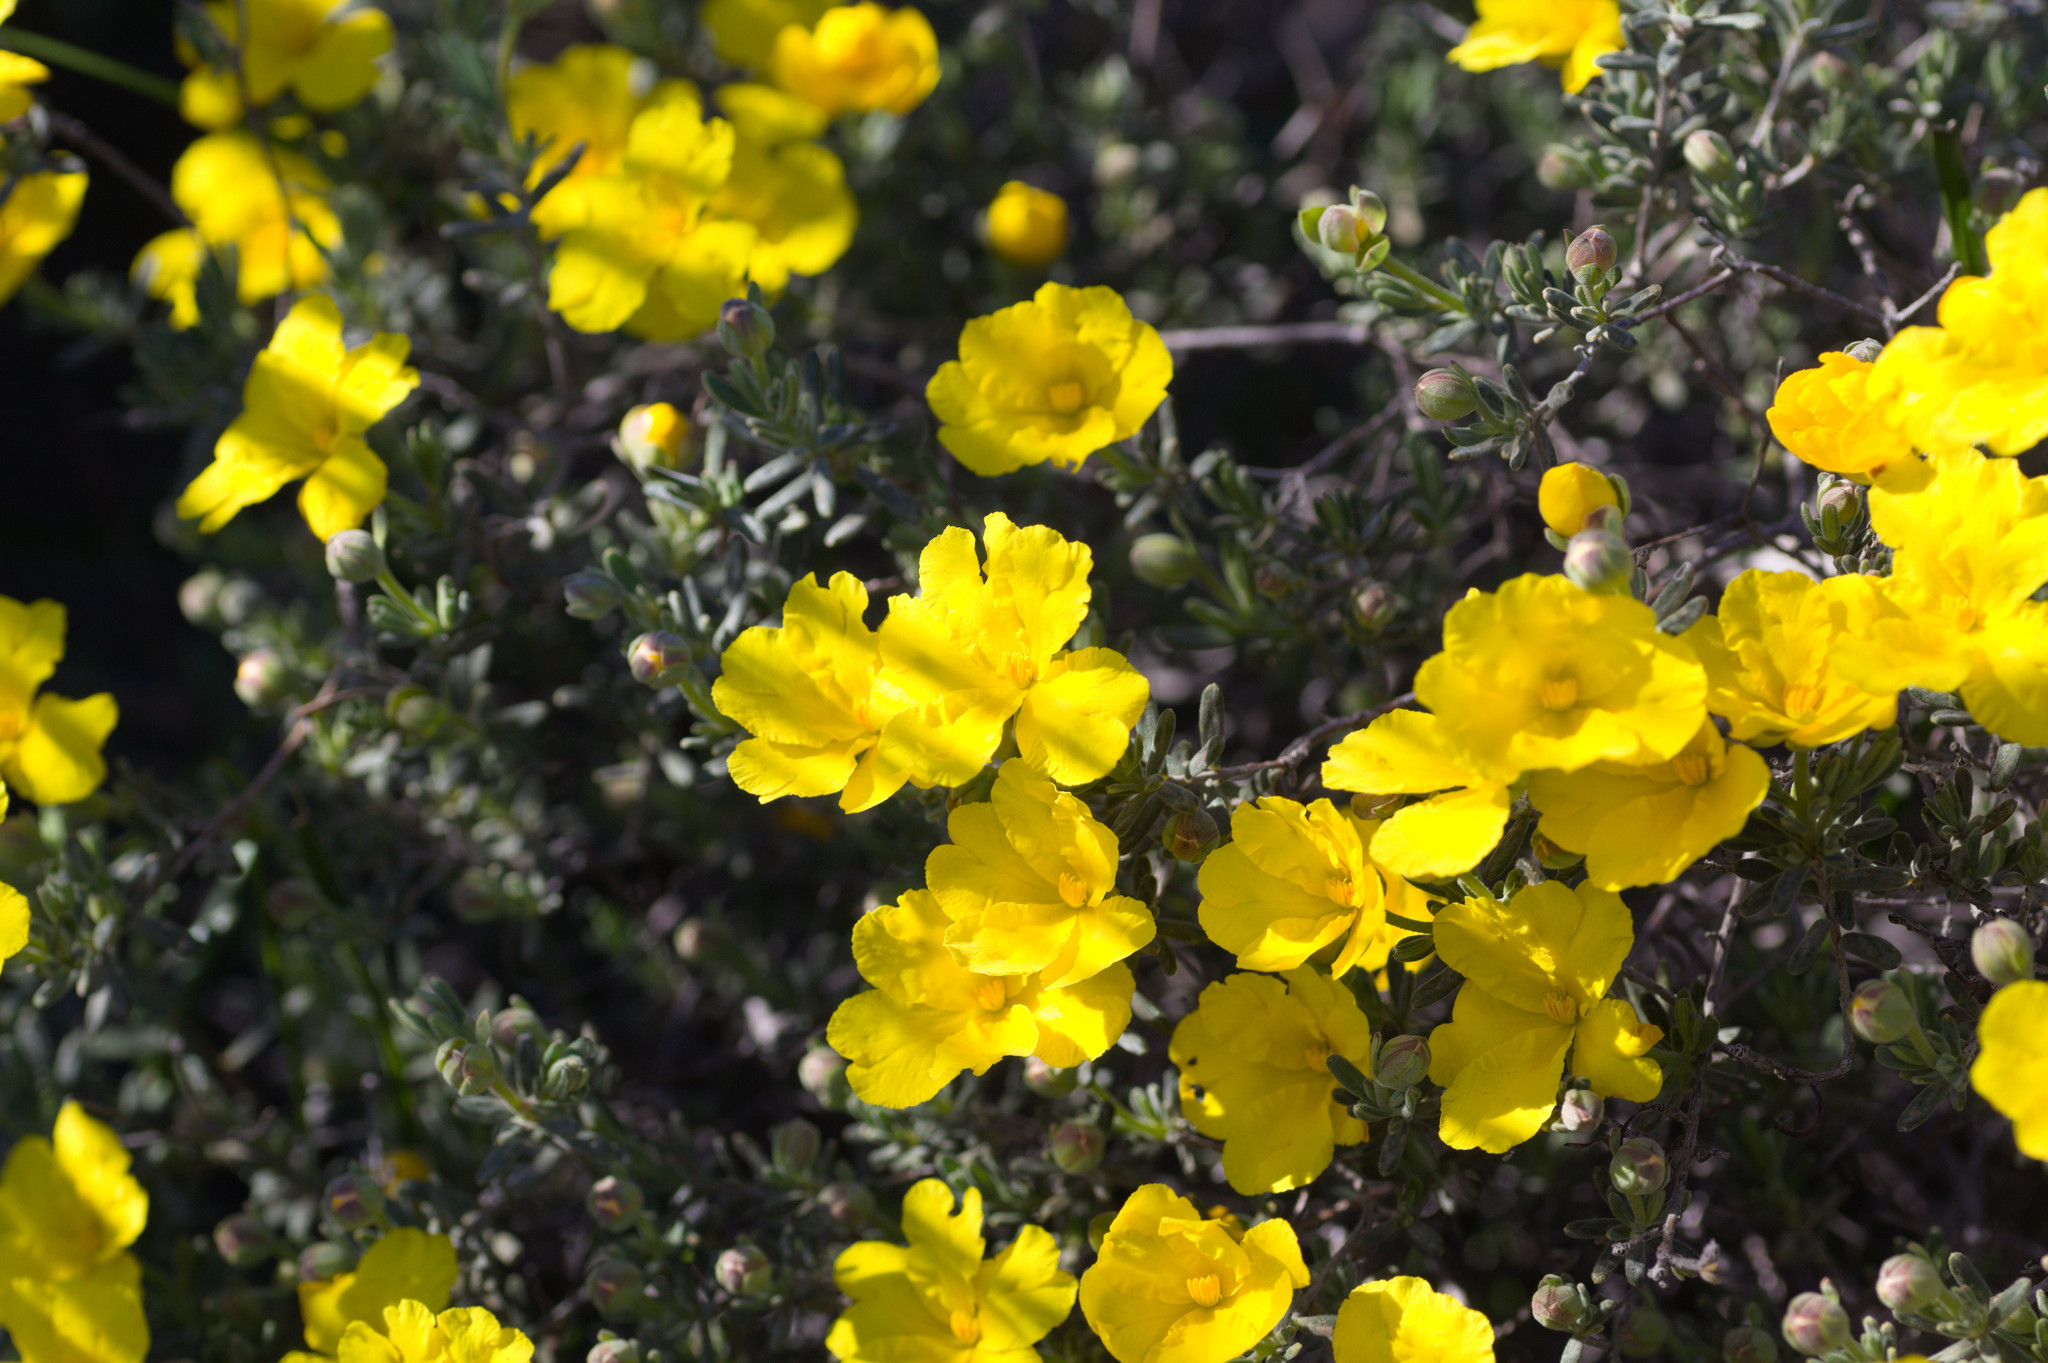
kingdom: Plantae
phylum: Tracheophyta
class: Magnoliopsida
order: Dilleniales
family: Dilleniaceae
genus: Hibbertia
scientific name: Hibbertia hypericoides
